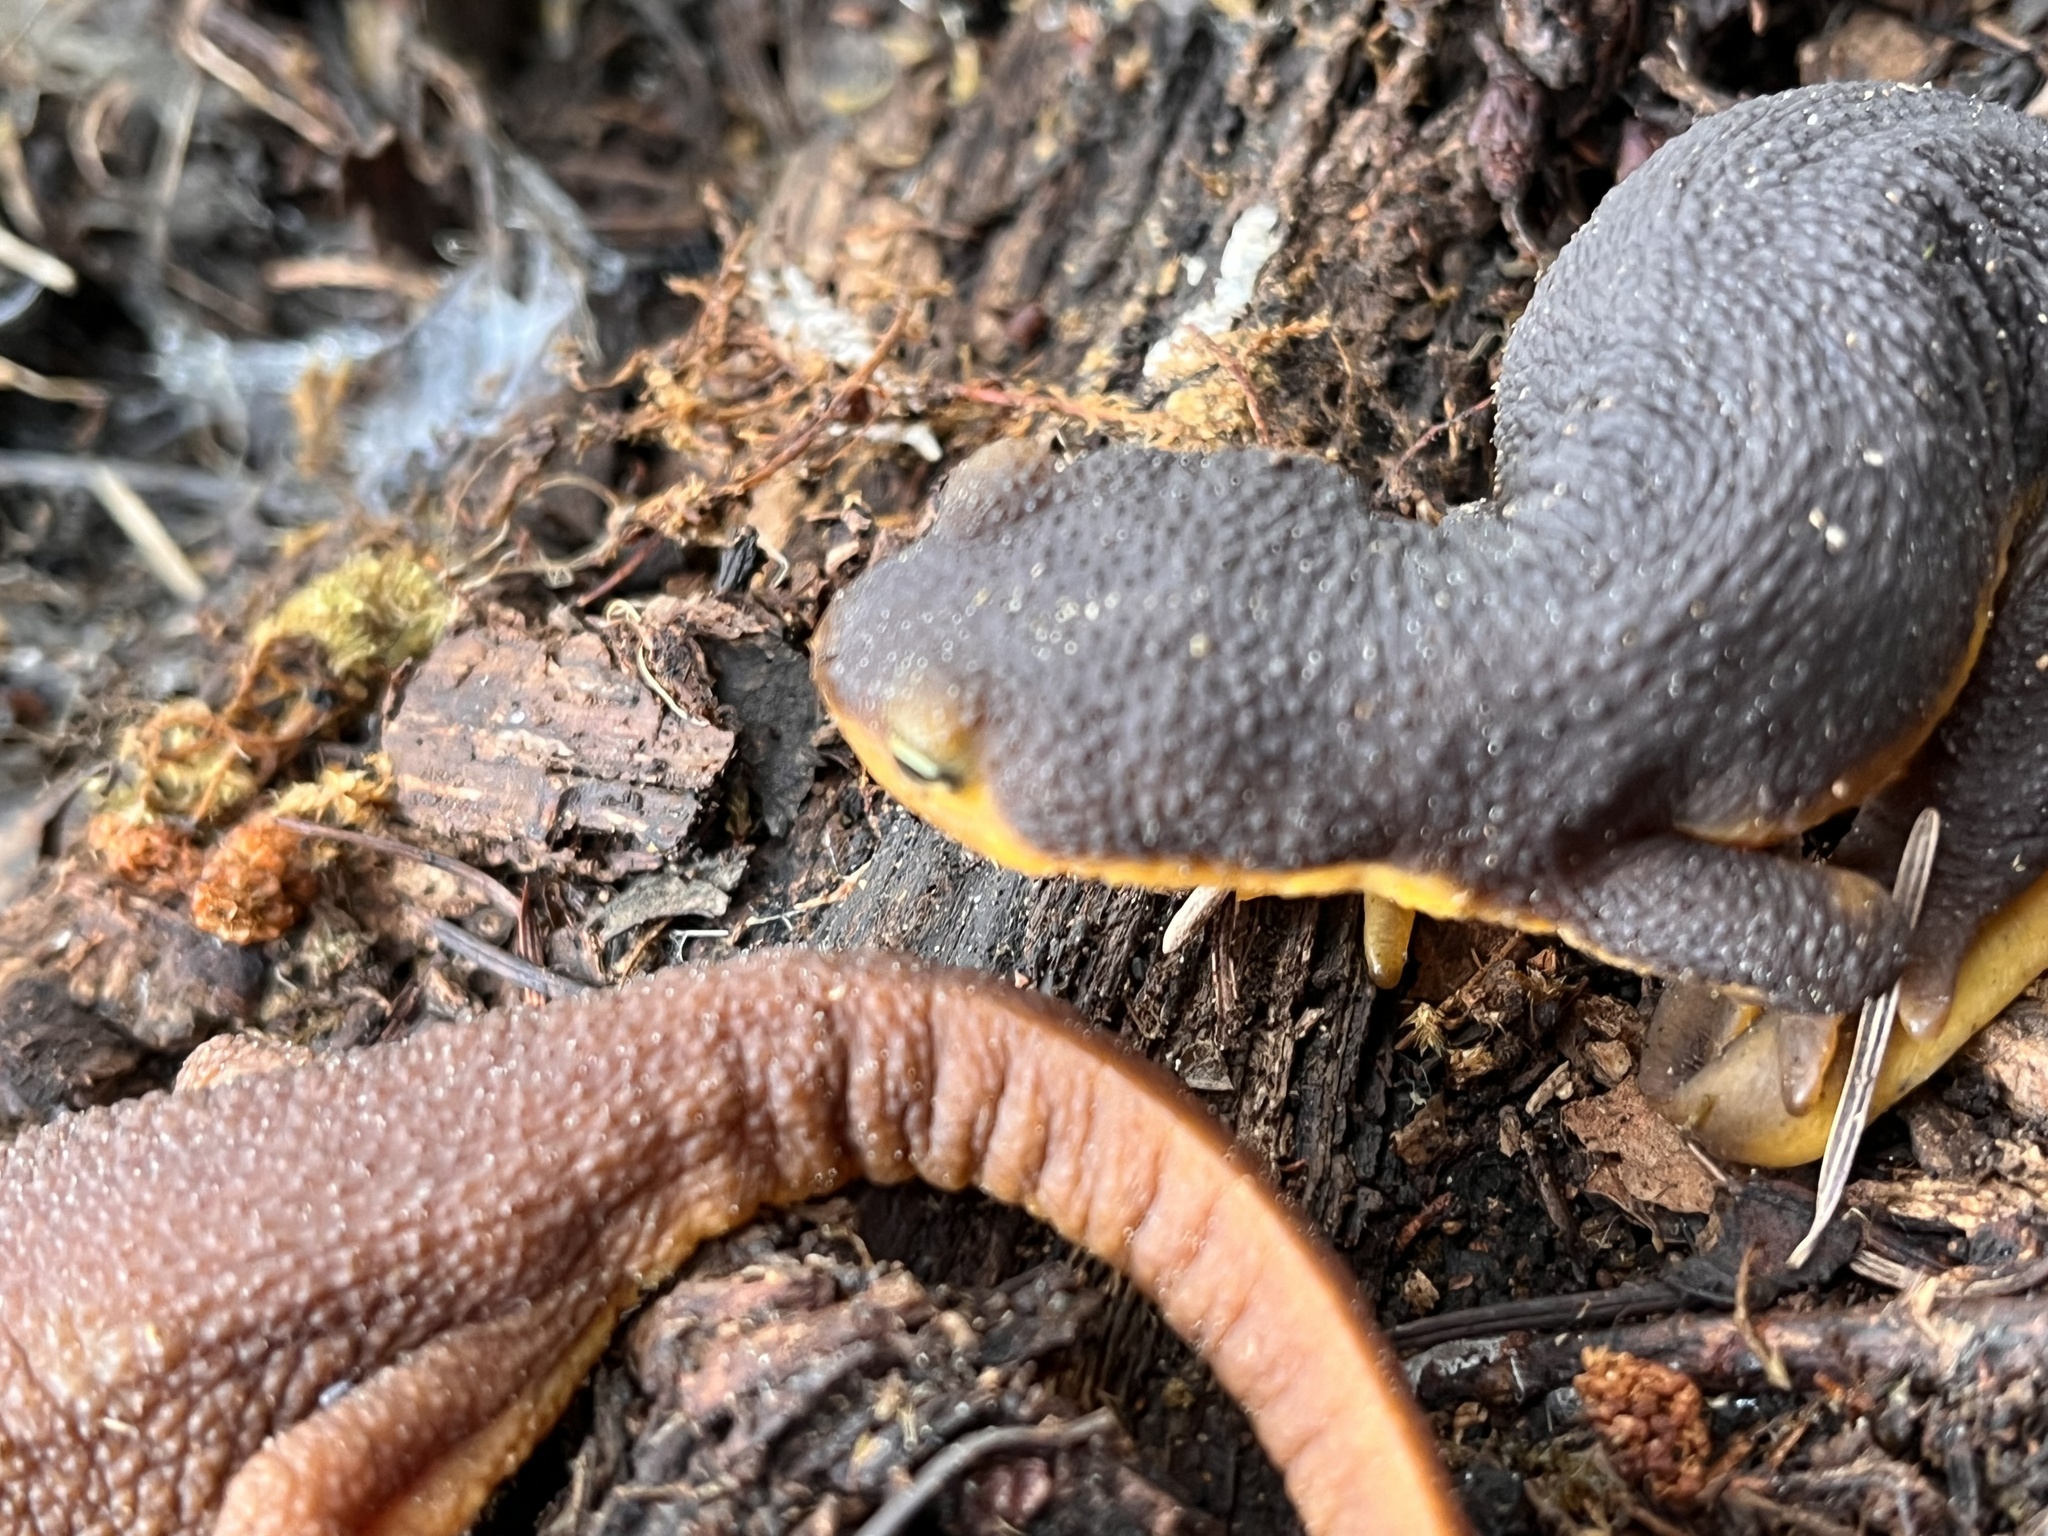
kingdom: Animalia
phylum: Chordata
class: Amphibia
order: Caudata
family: Salamandridae
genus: Taricha
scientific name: Taricha torosa
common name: California newt
